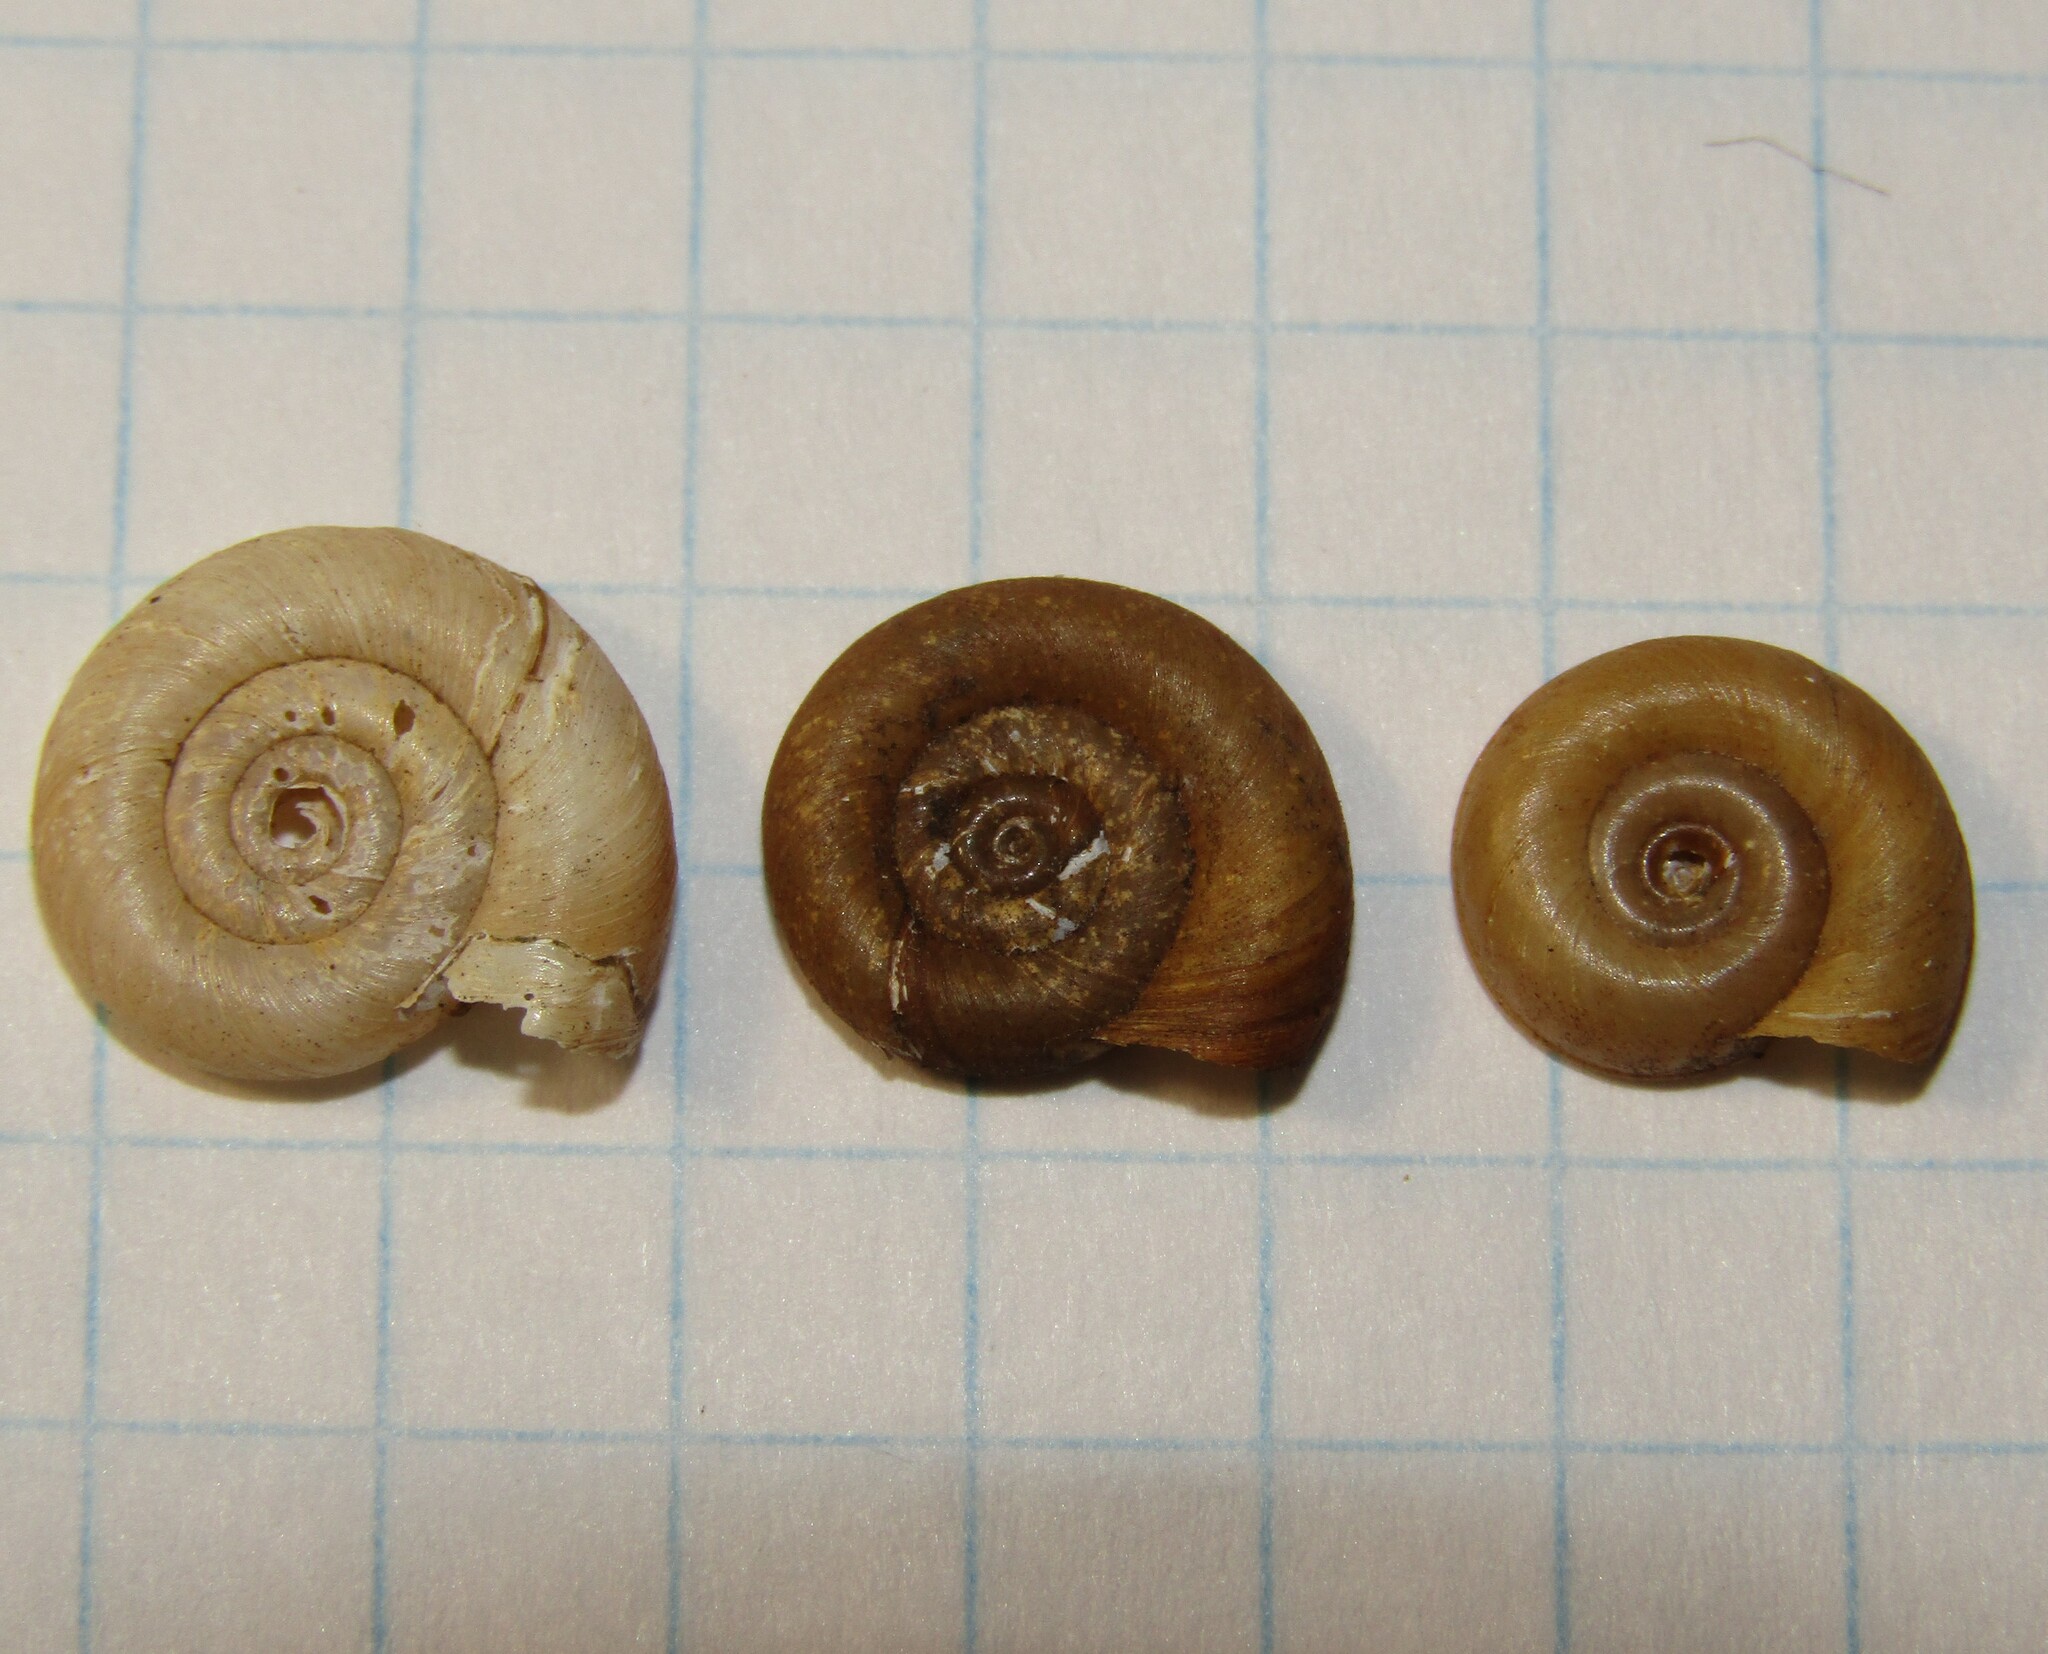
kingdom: Animalia
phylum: Mollusca
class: Gastropoda
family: Planorbidae
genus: Planorbis
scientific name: Planorbis planorbis
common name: Margined ramshorn
